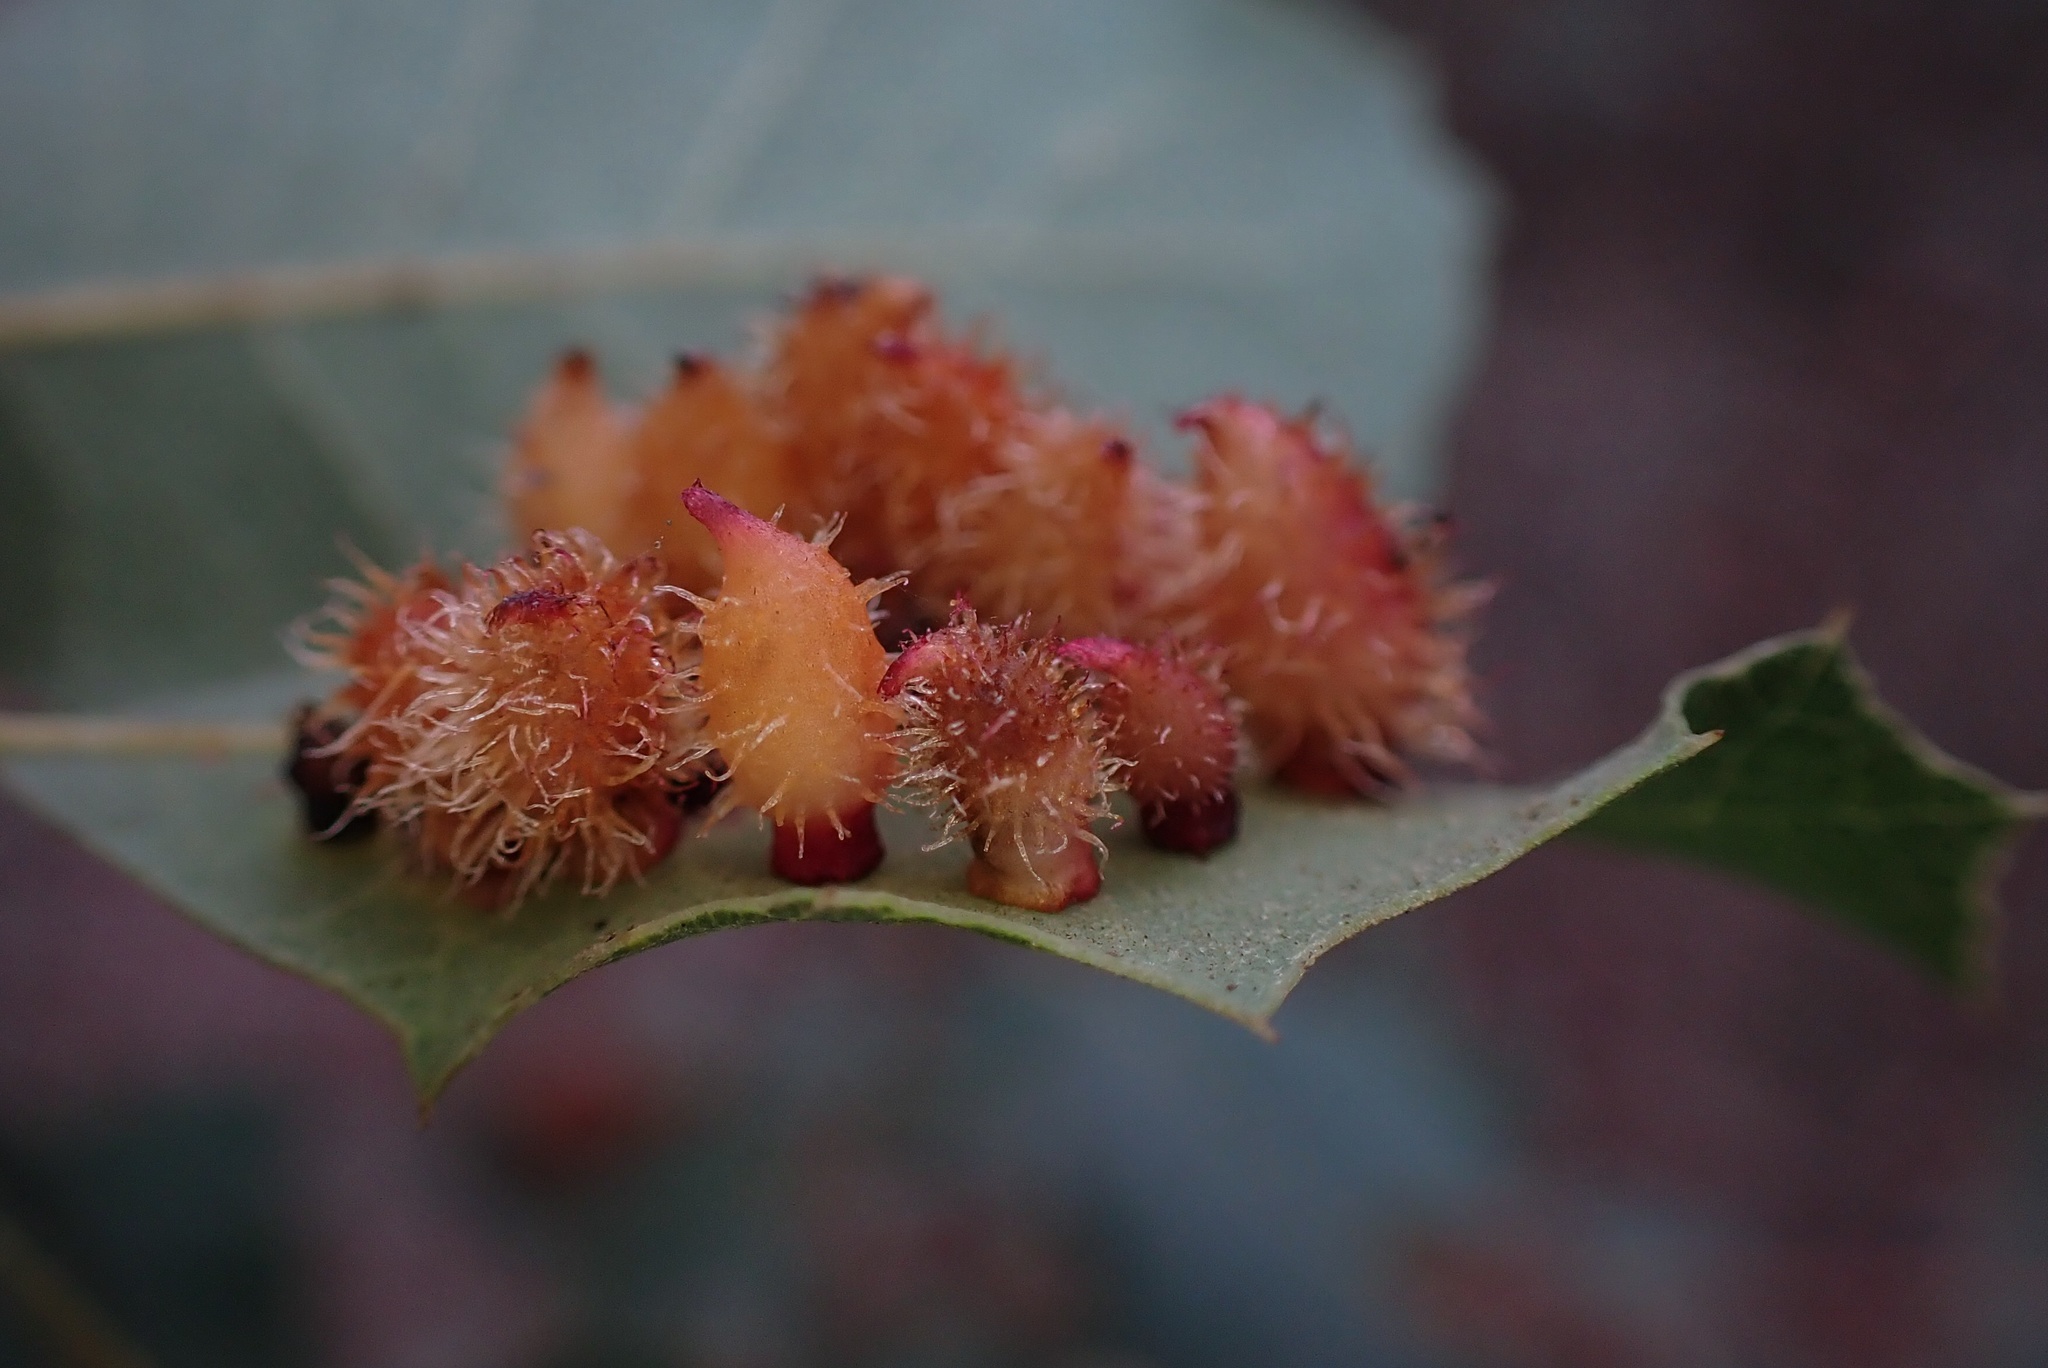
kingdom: Animalia
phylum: Arthropoda
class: Insecta
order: Hymenoptera
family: Cynipidae
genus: Andricus
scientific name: Andricus
